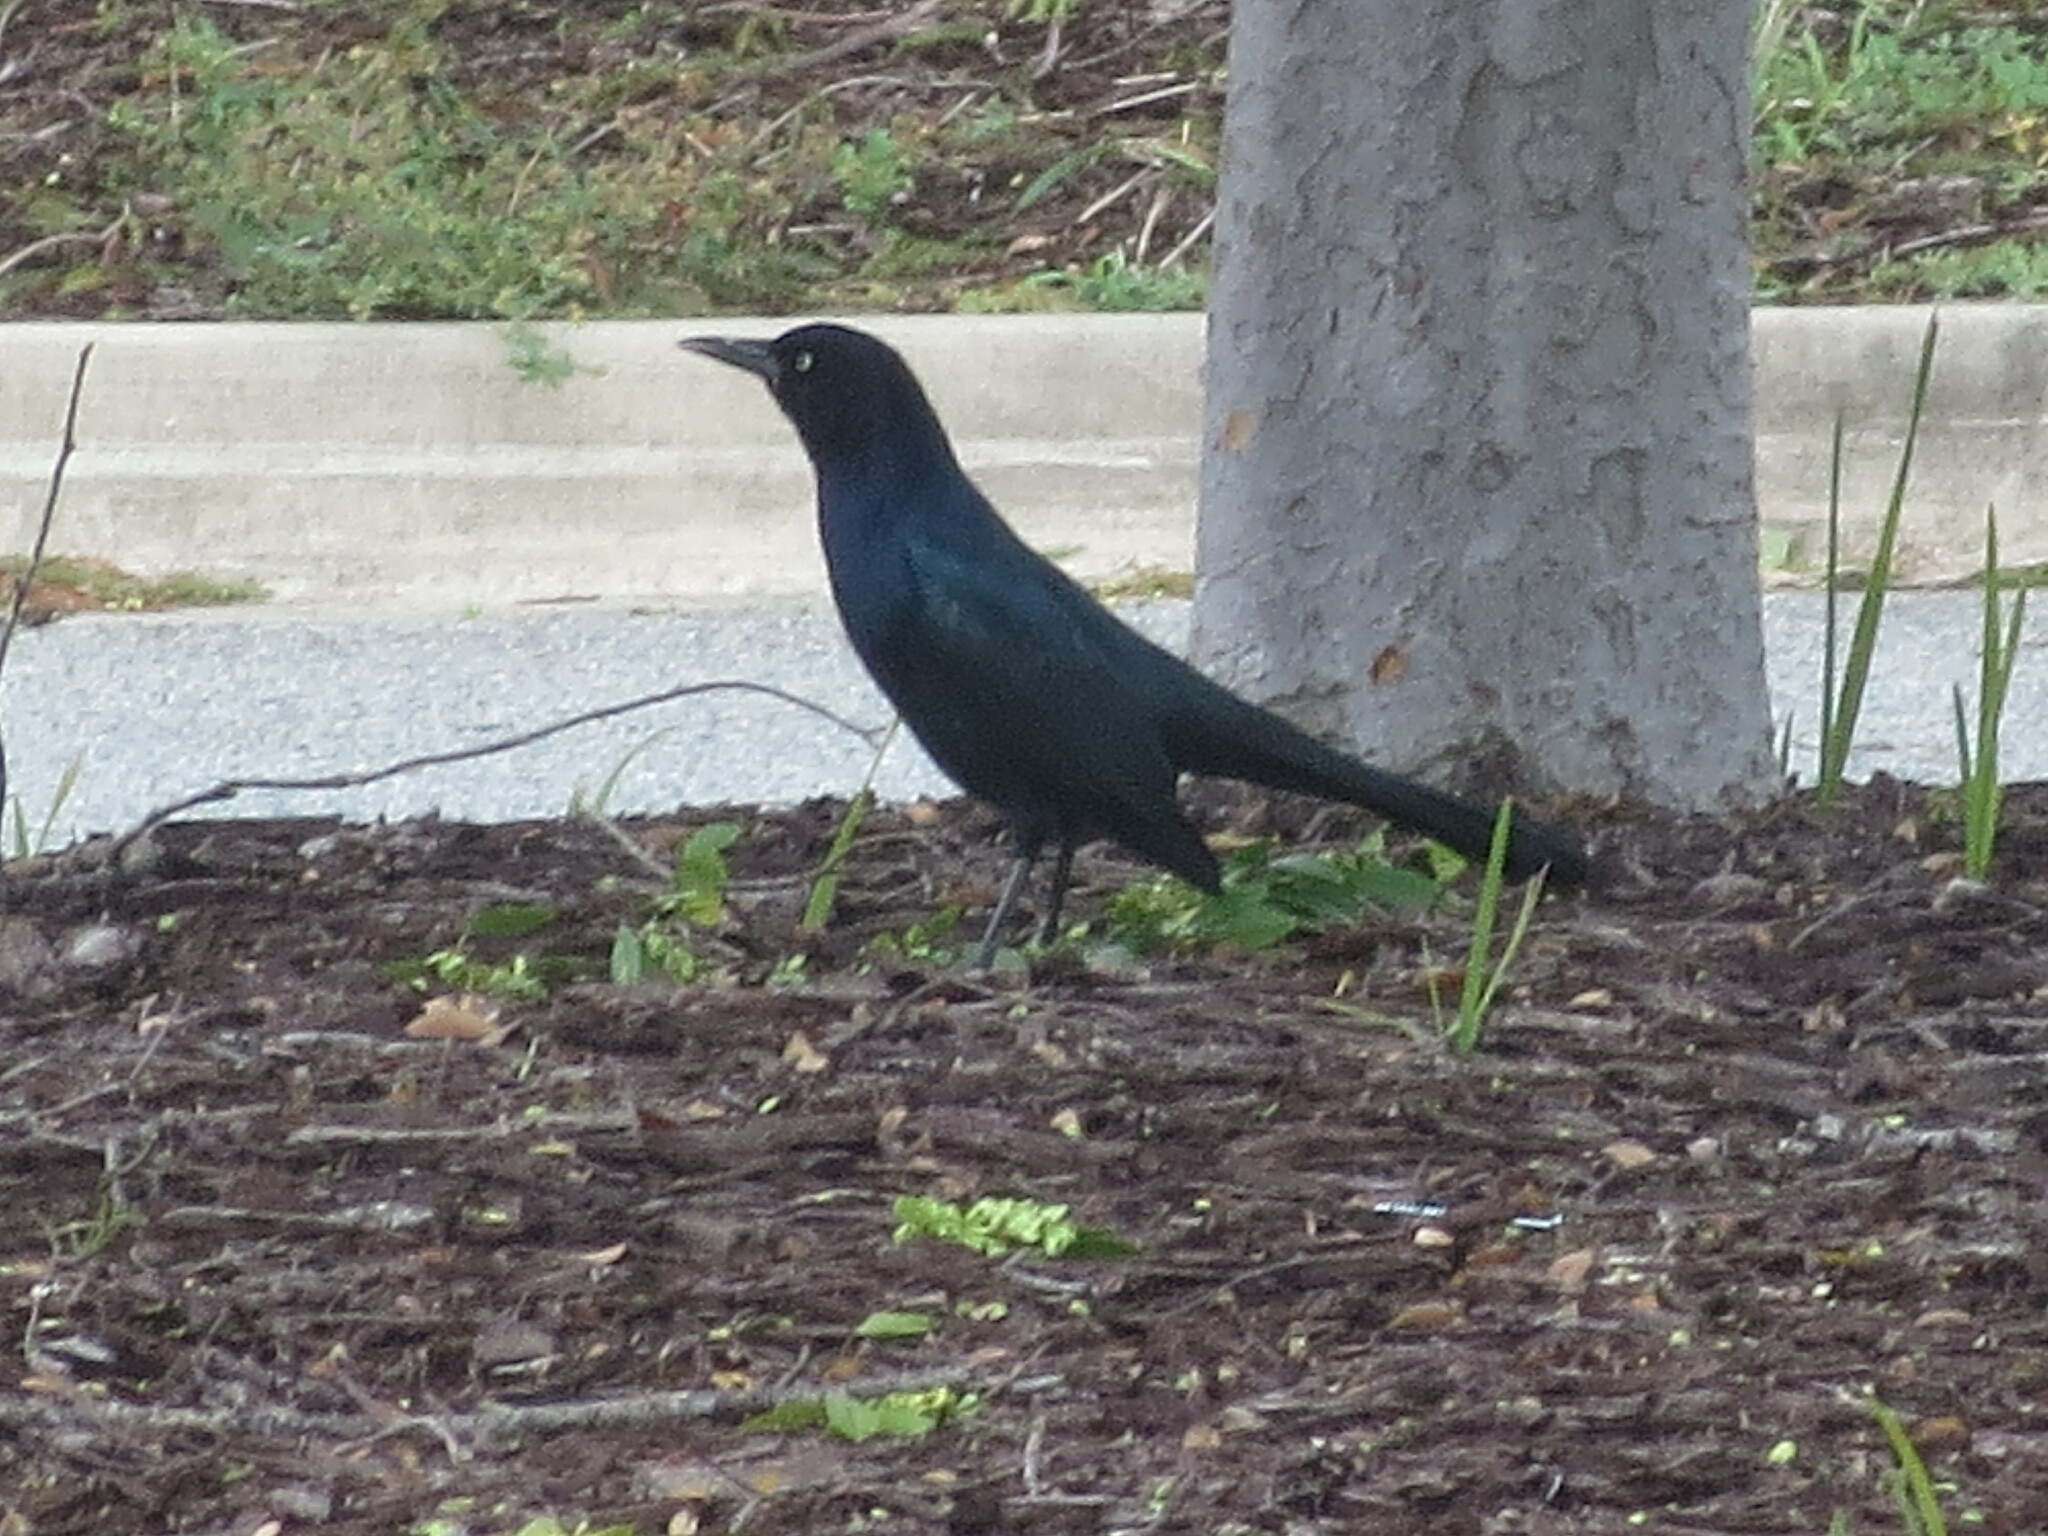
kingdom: Animalia
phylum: Chordata
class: Aves
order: Passeriformes
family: Icteridae
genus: Quiscalus
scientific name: Quiscalus major
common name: Boat-tailed grackle
